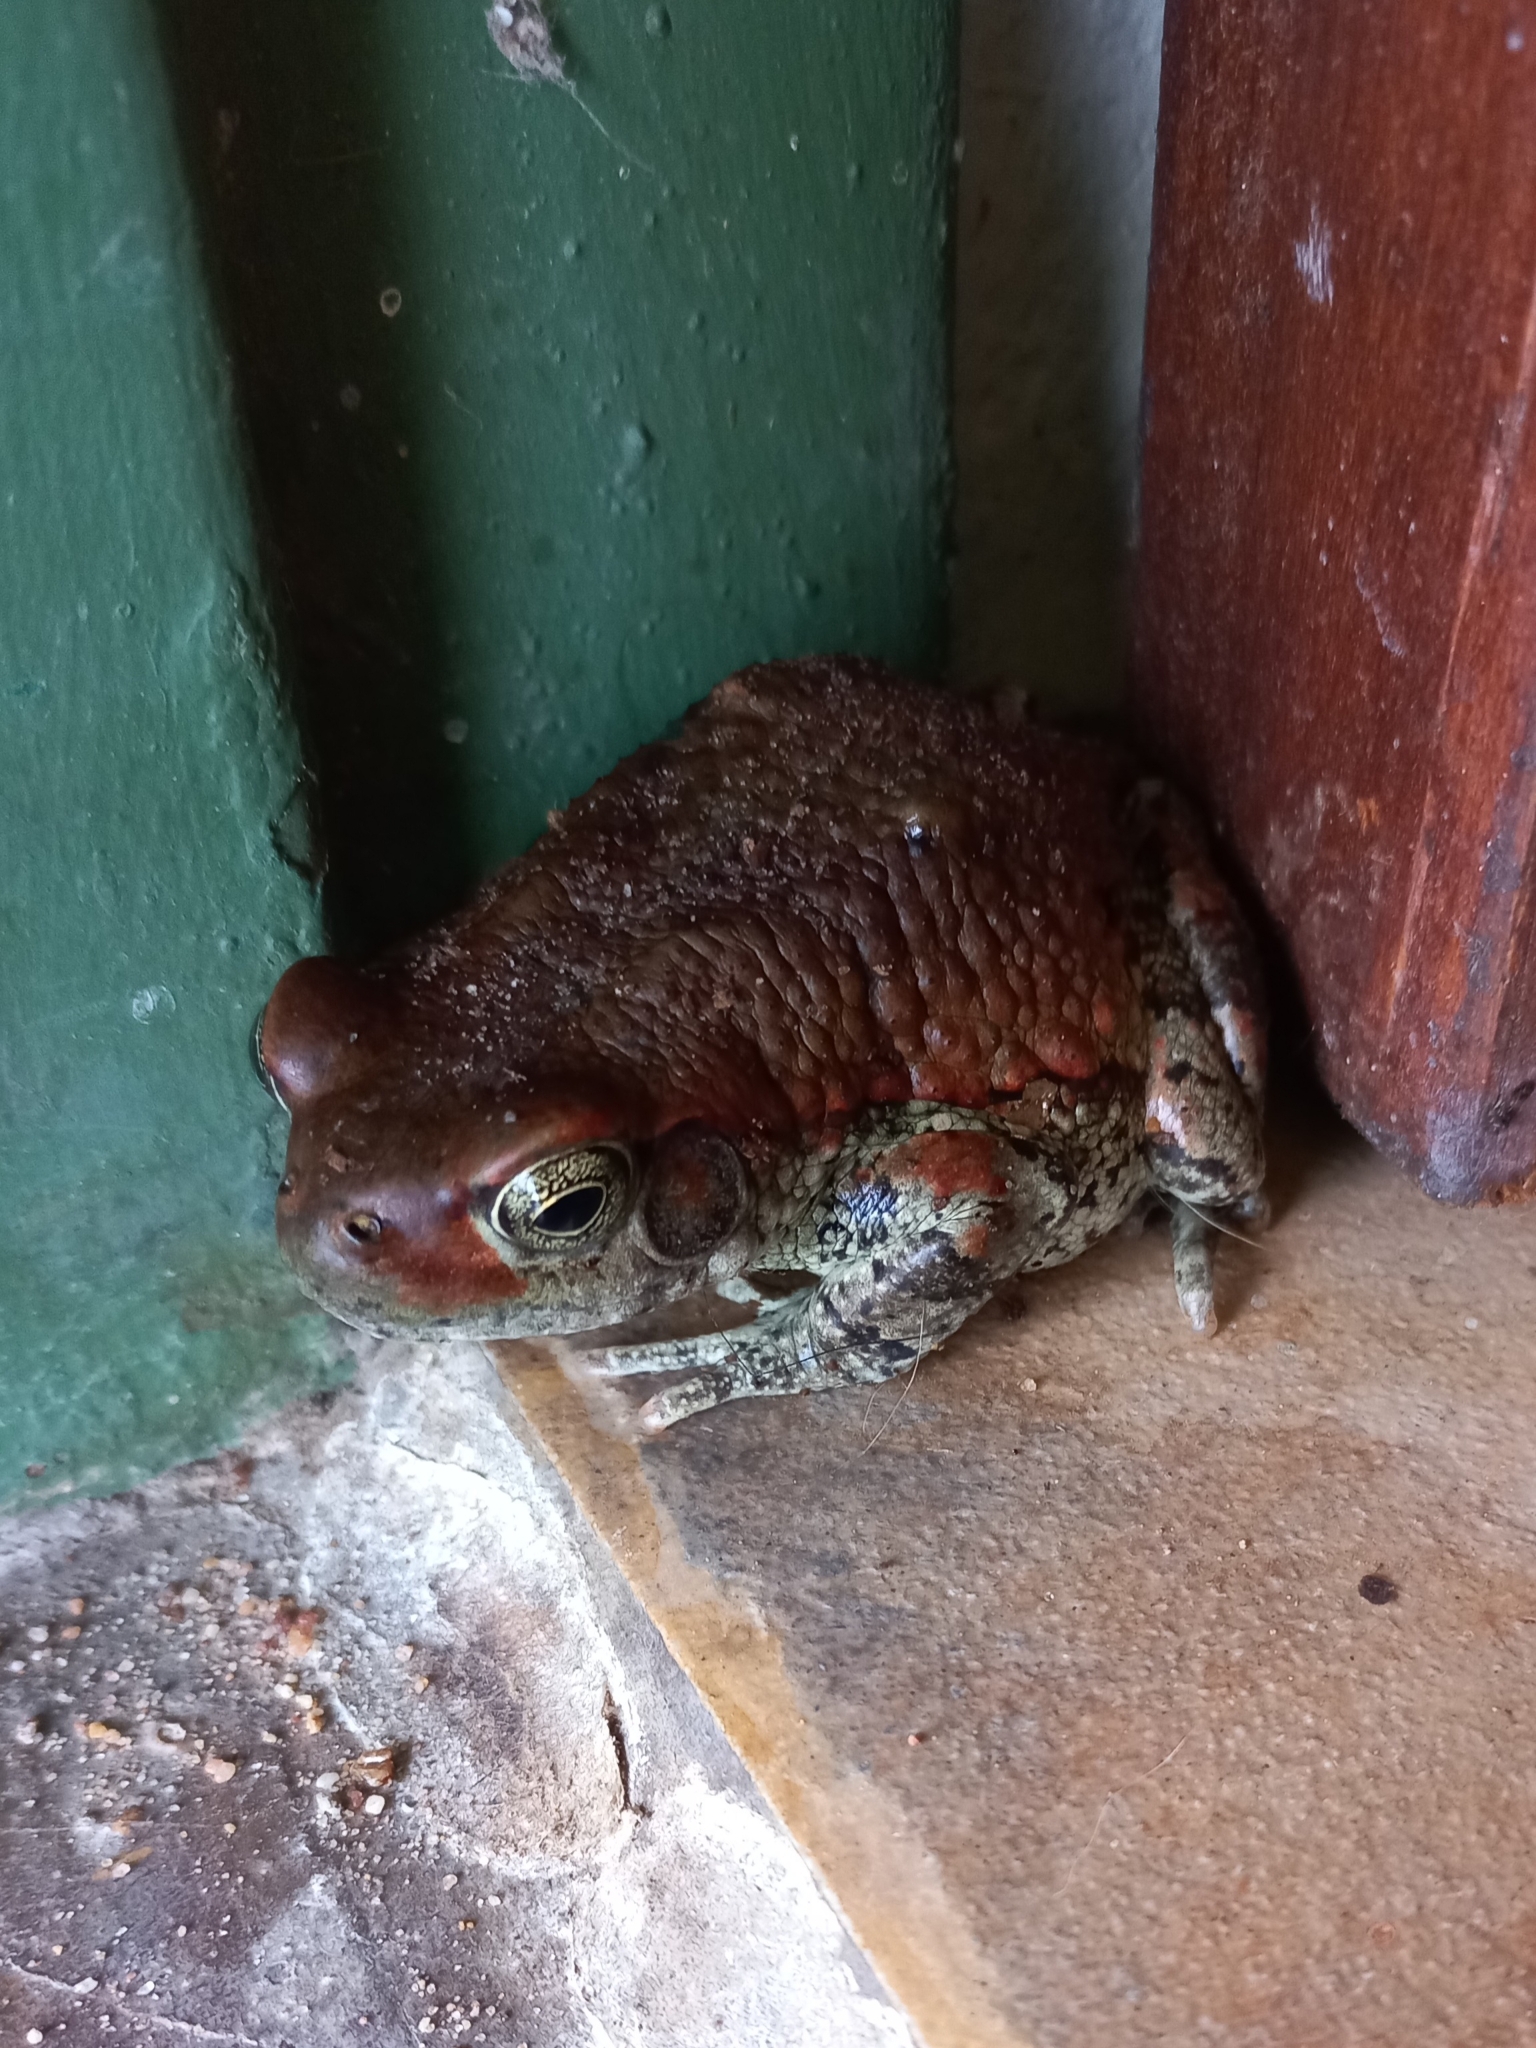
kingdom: Animalia
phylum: Chordata
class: Amphibia
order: Anura
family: Bufonidae
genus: Schismaderma
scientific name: Schismaderma carens
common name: African split-skin toad
